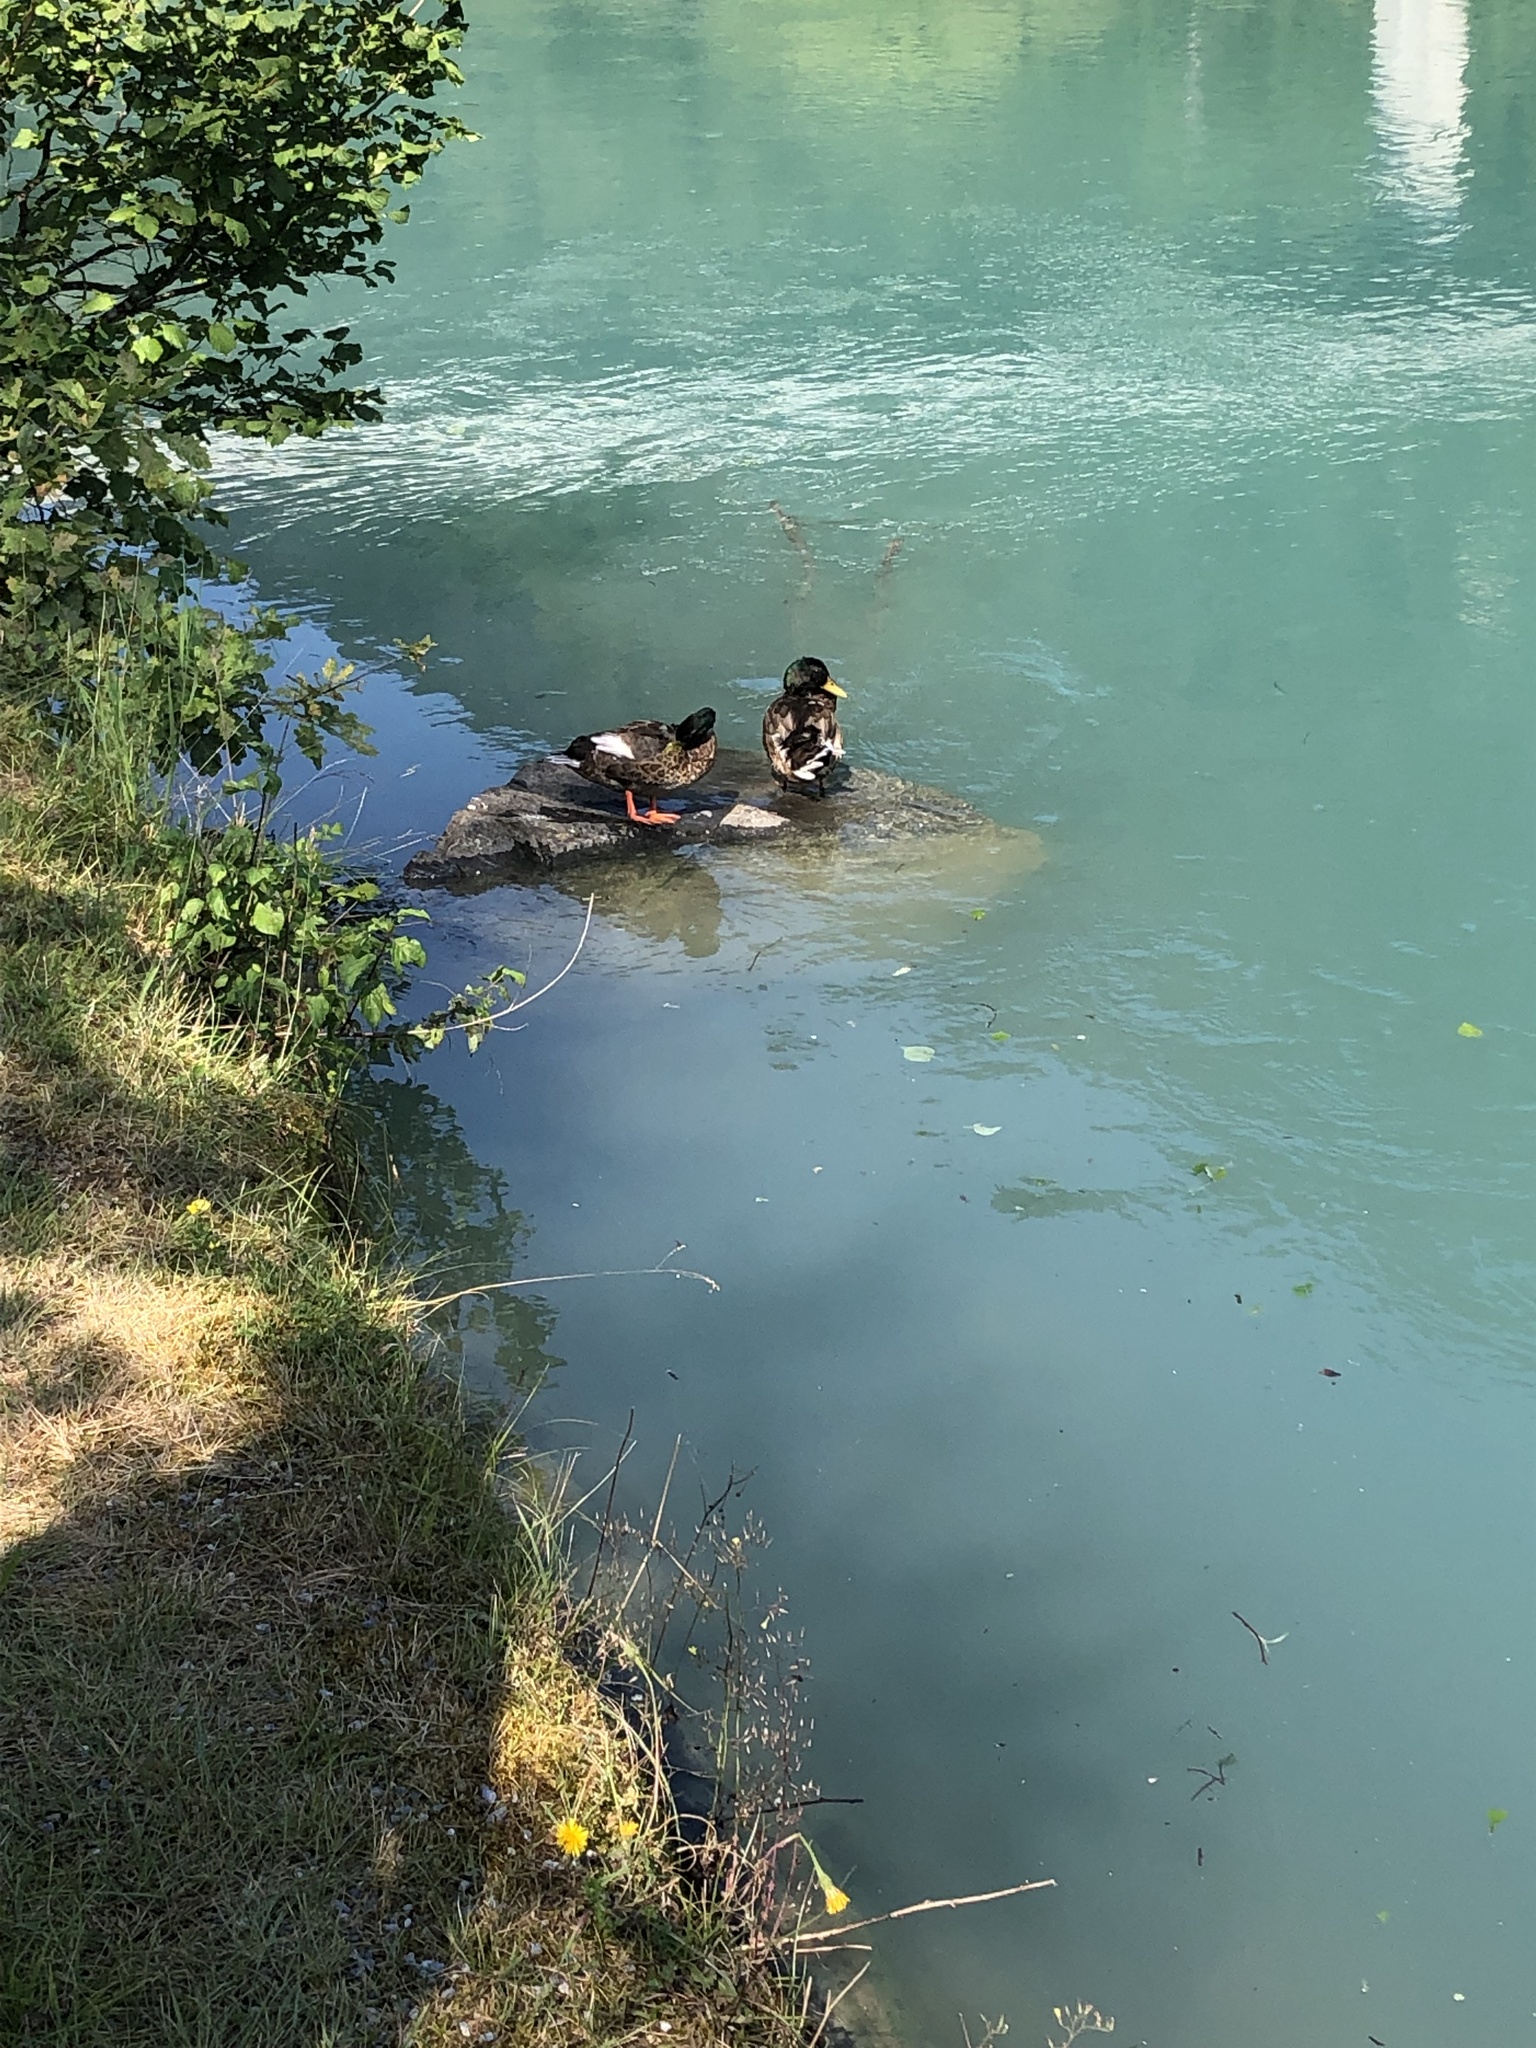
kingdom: Animalia
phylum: Chordata
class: Aves
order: Anseriformes
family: Anatidae
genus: Anas
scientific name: Anas platyrhynchos
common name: Mallard
